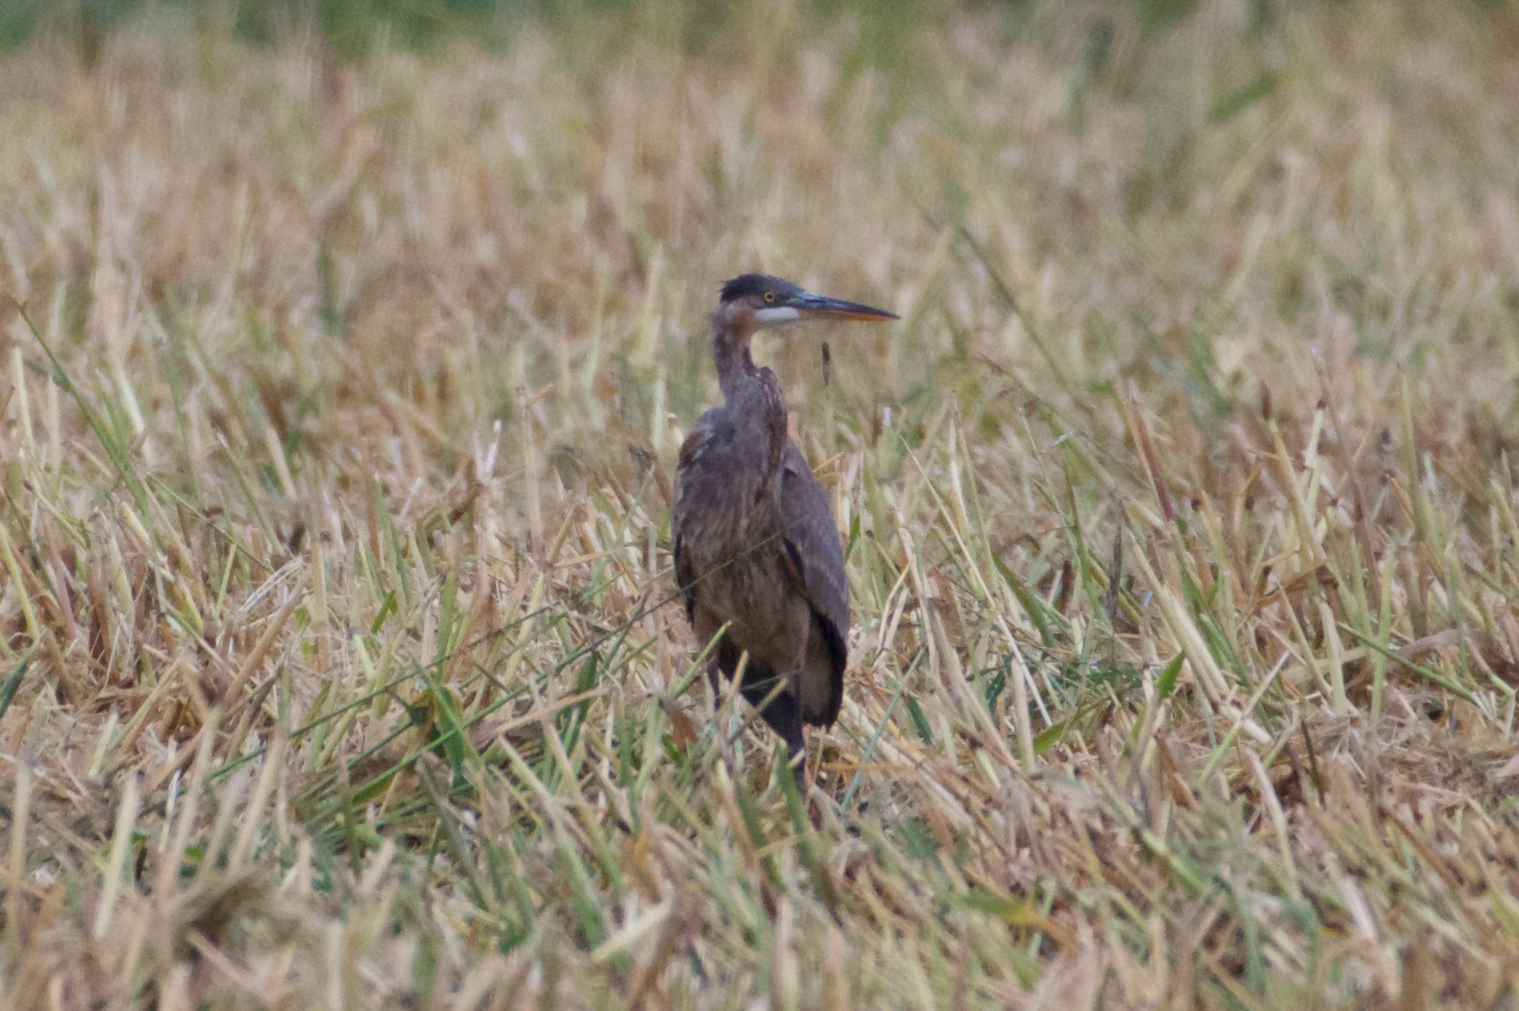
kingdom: Animalia
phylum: Chordata
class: Aves
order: Pelecaniformes
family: Ardeidae
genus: Ardea
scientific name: Ardea herodias
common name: Great blue heron
